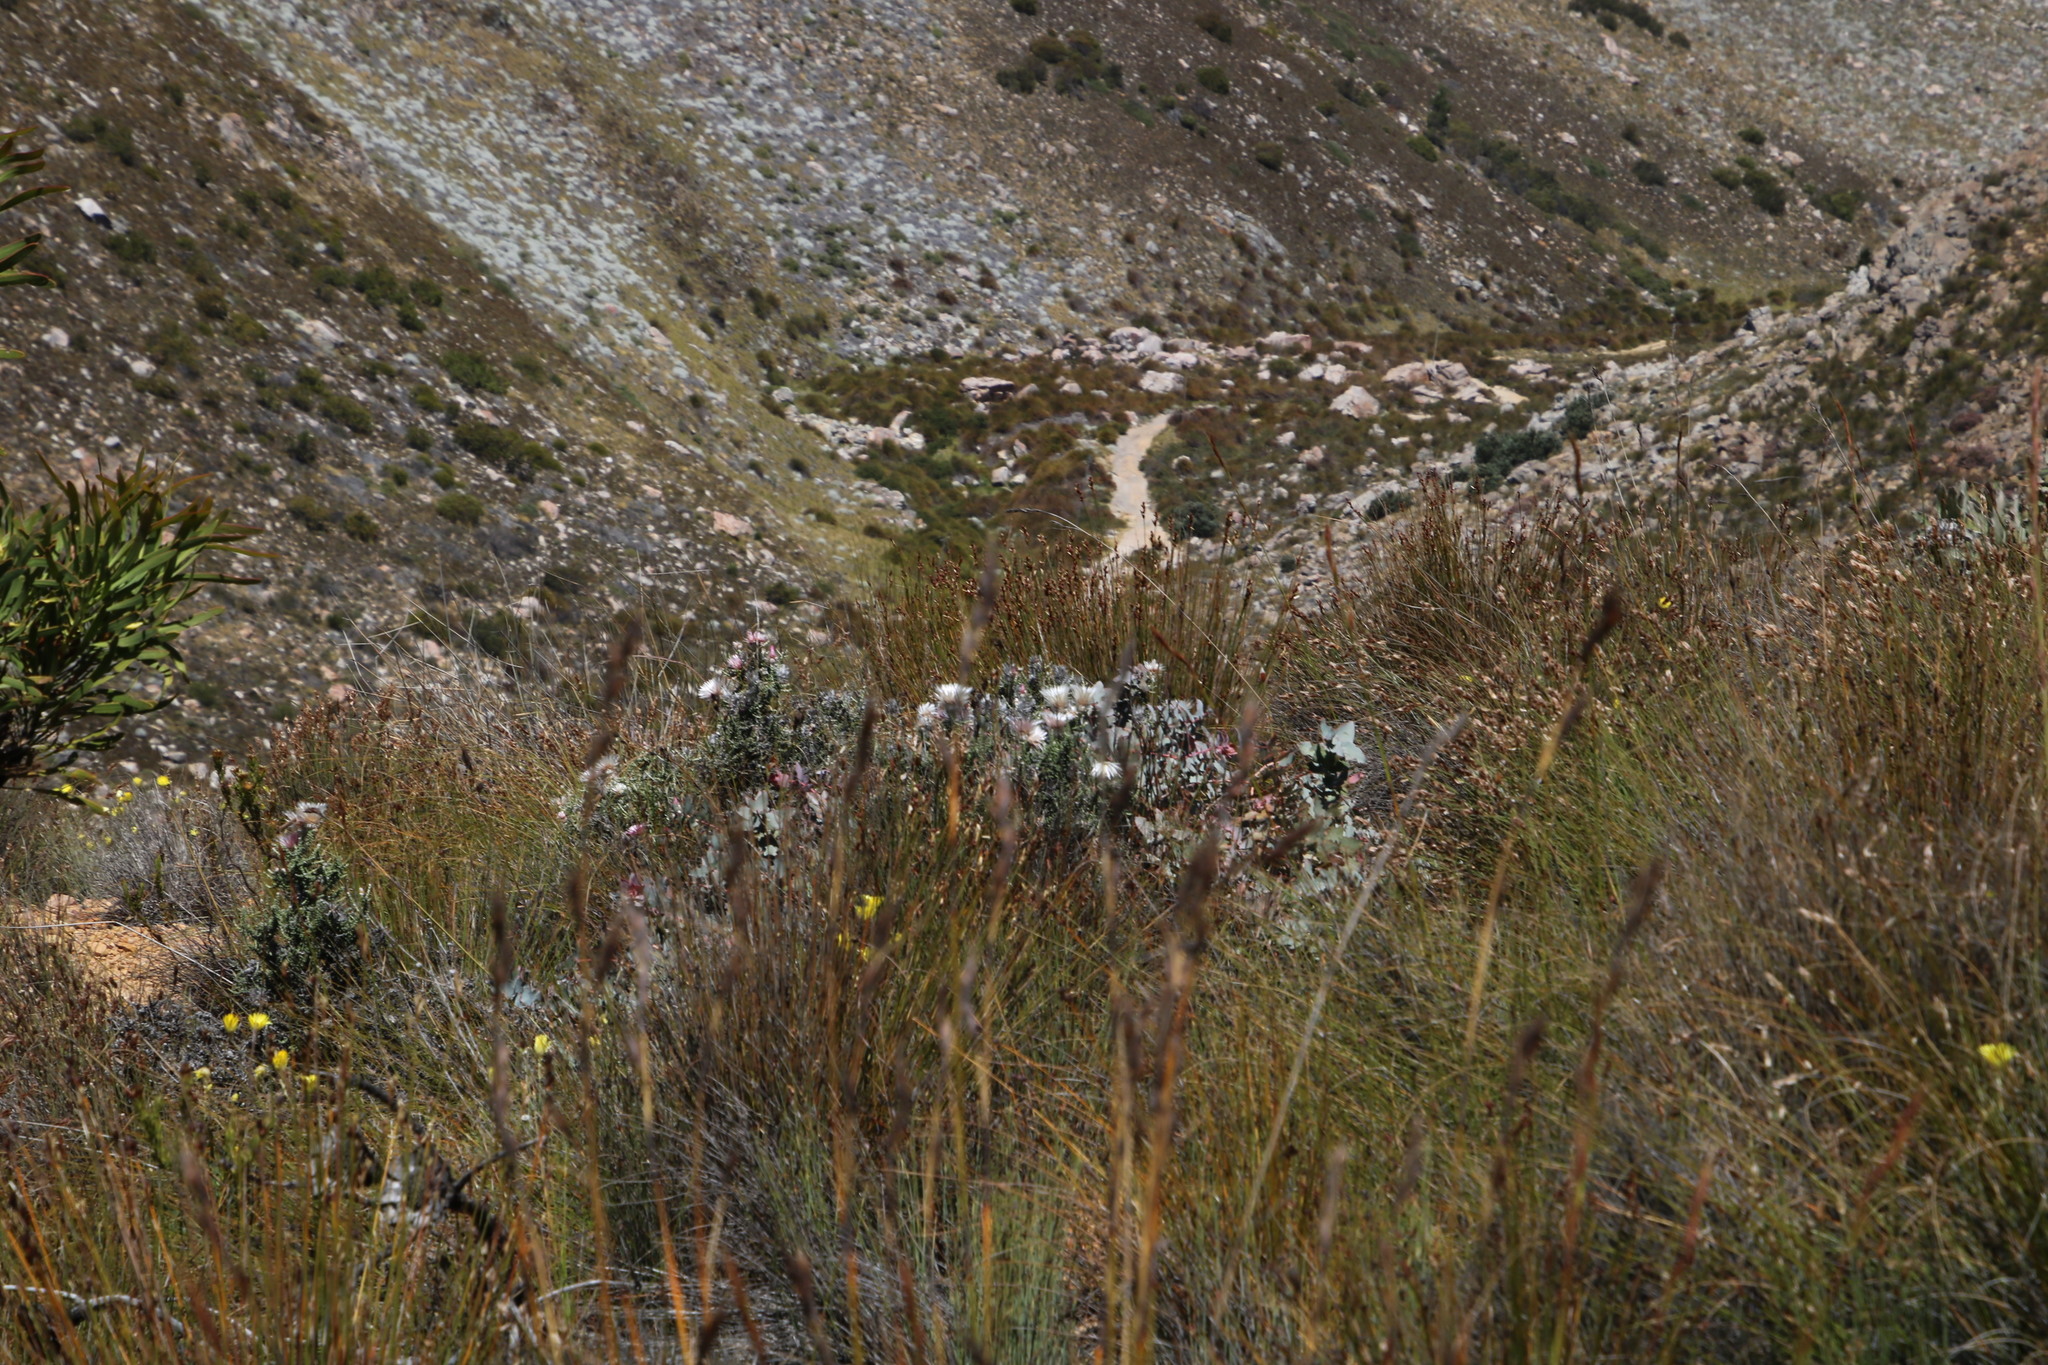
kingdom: Plantae
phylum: Tracheophyta
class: Magnoliopsida
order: Asterales
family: Asteraceae
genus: Phaenocoma
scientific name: Phaenocoma prolifera
